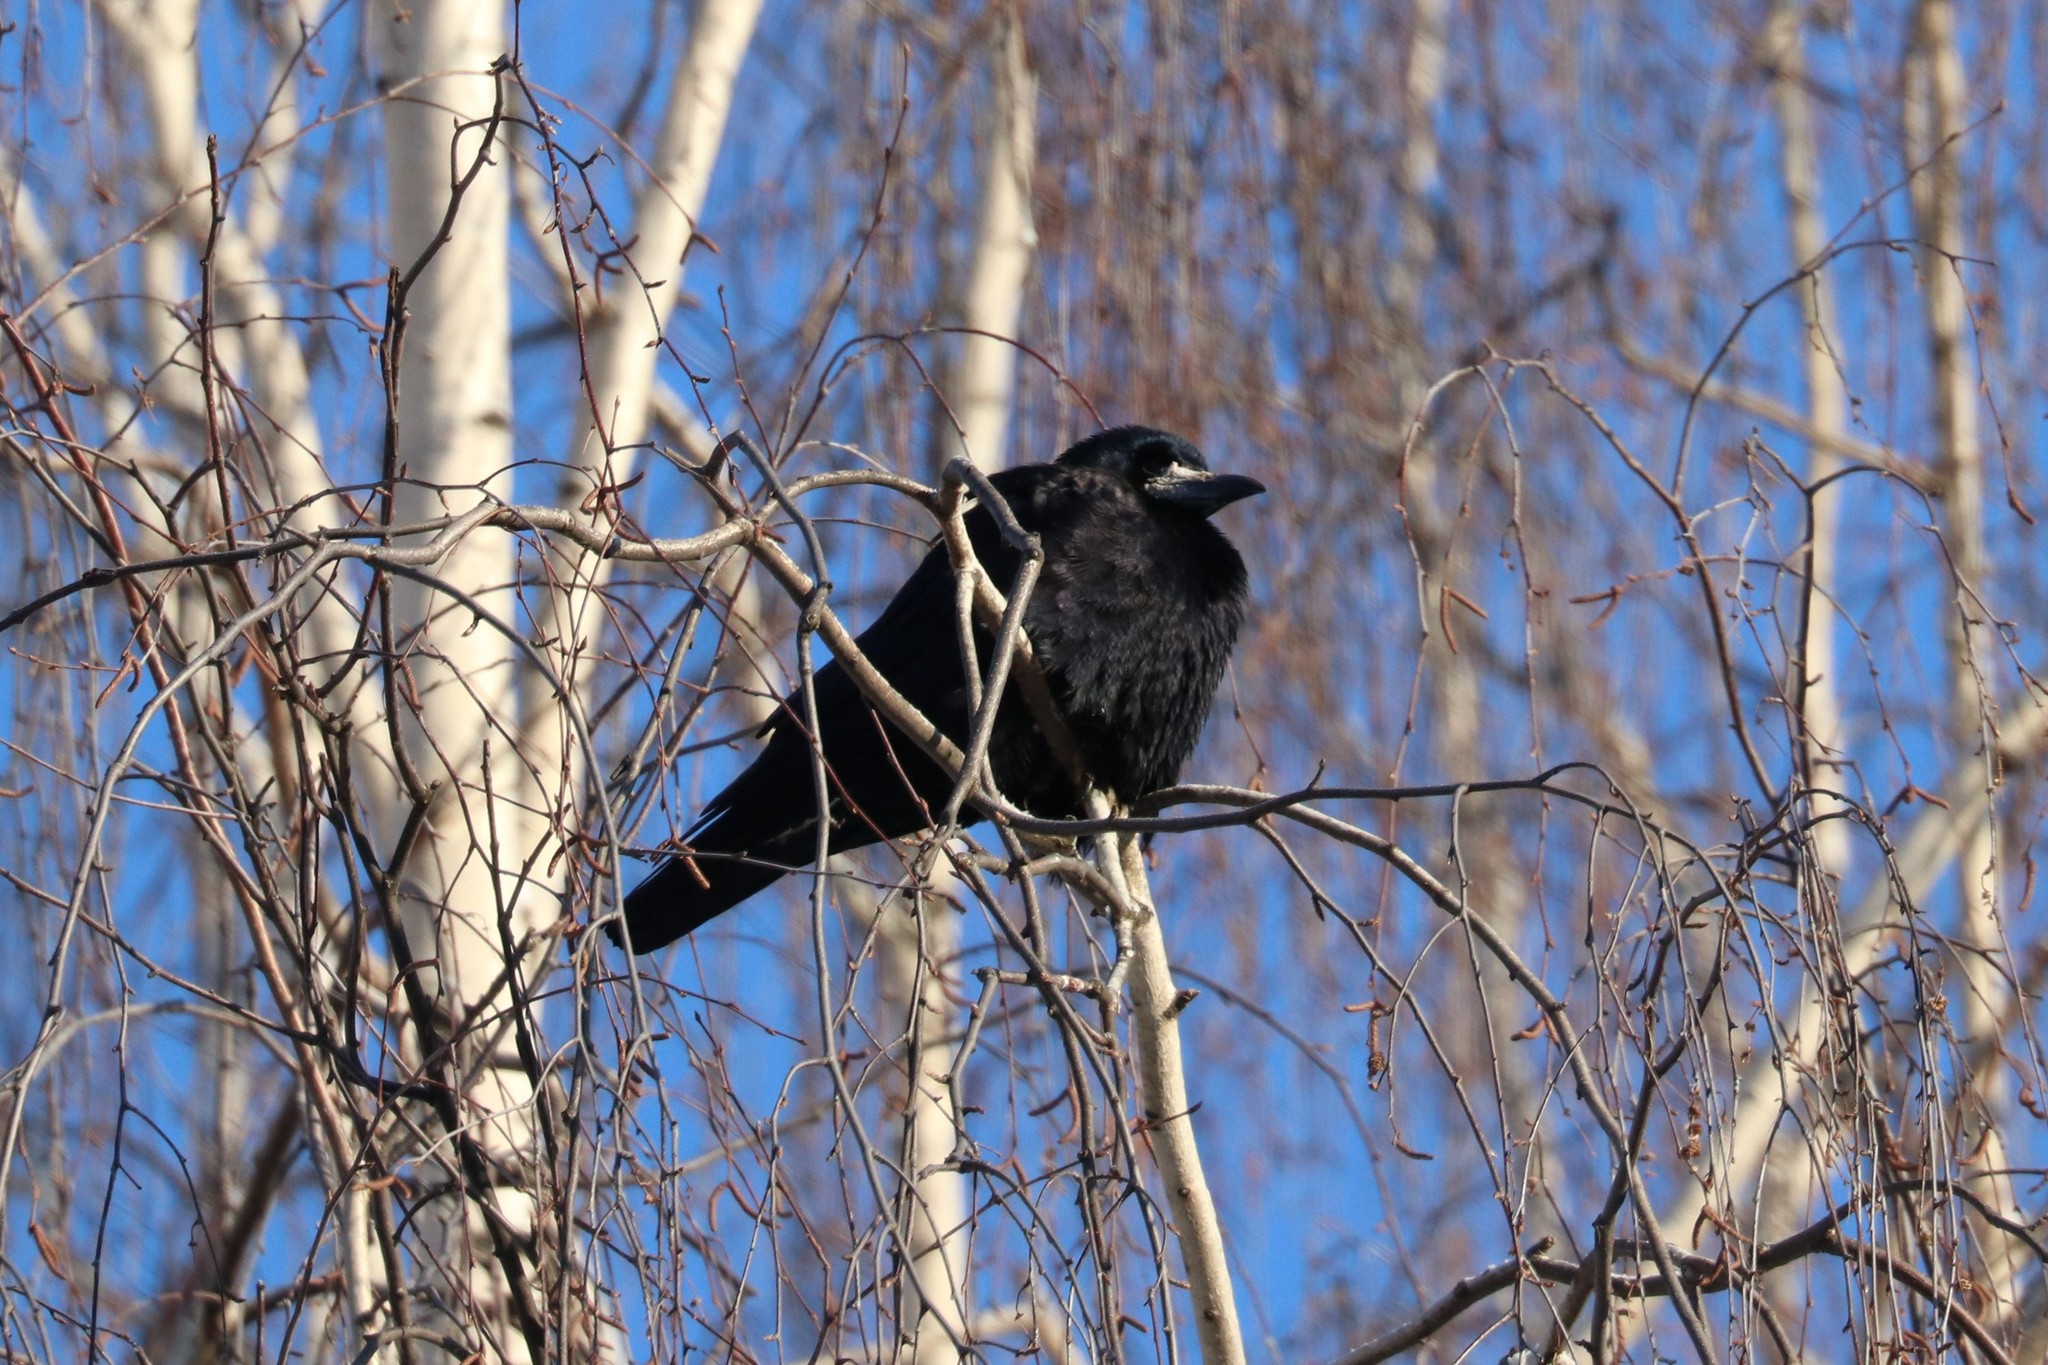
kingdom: Animalia
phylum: Chordata
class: Aves
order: Passeriformes
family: Corvidae
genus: Corvus
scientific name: Corvus frugilegus
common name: Rook
